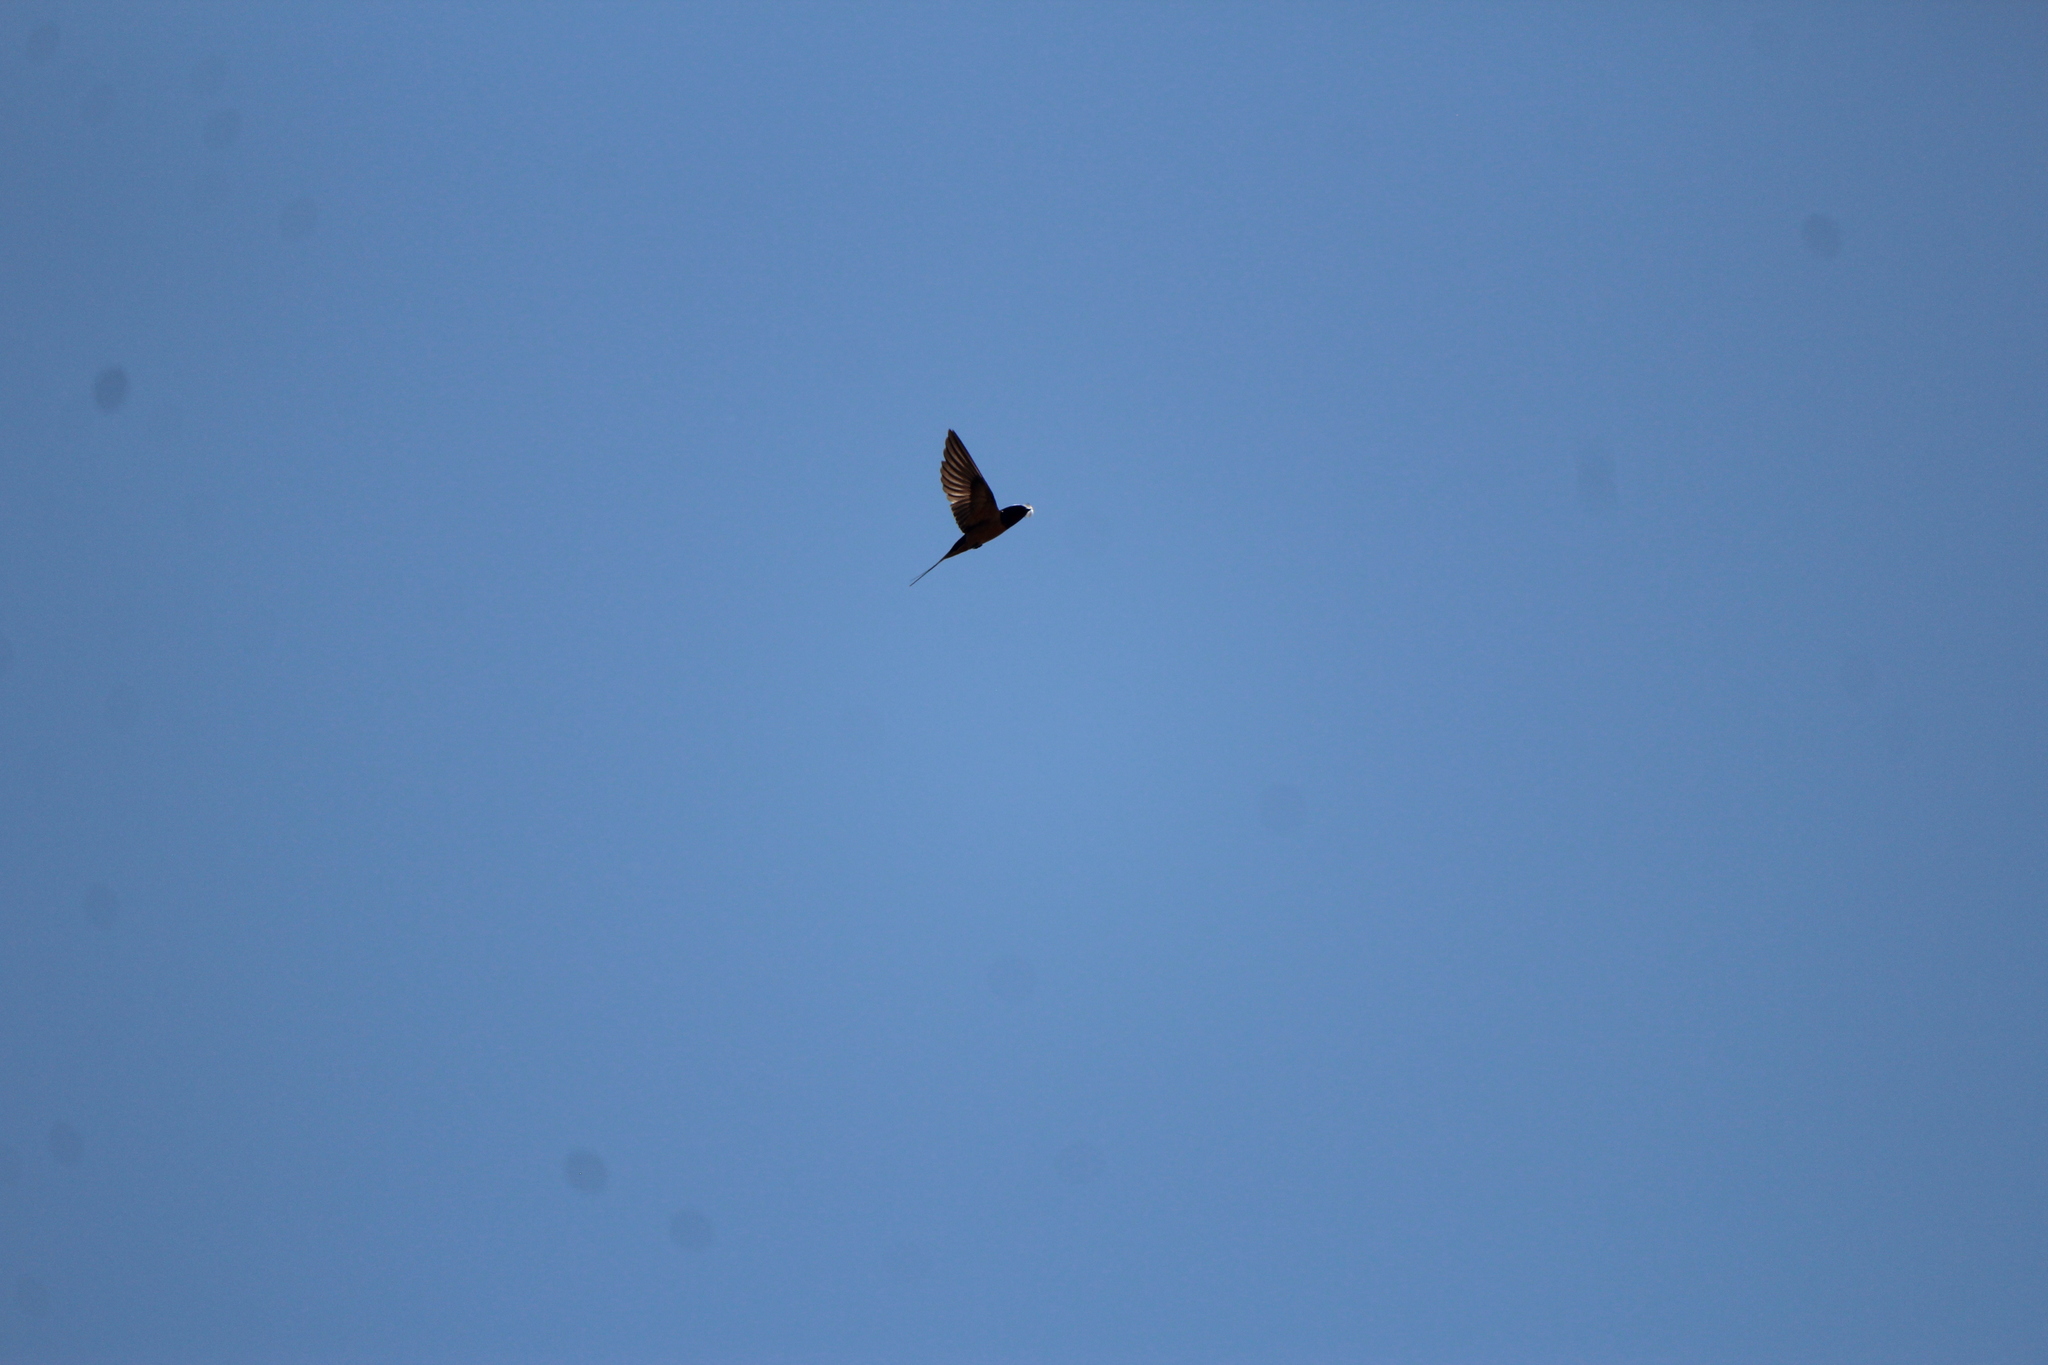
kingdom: Animalia
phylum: Chordata
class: Aves
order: Passeriformes
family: Hirundinidae
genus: Hirundo
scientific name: Hirundo rustica
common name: Barn swallow
